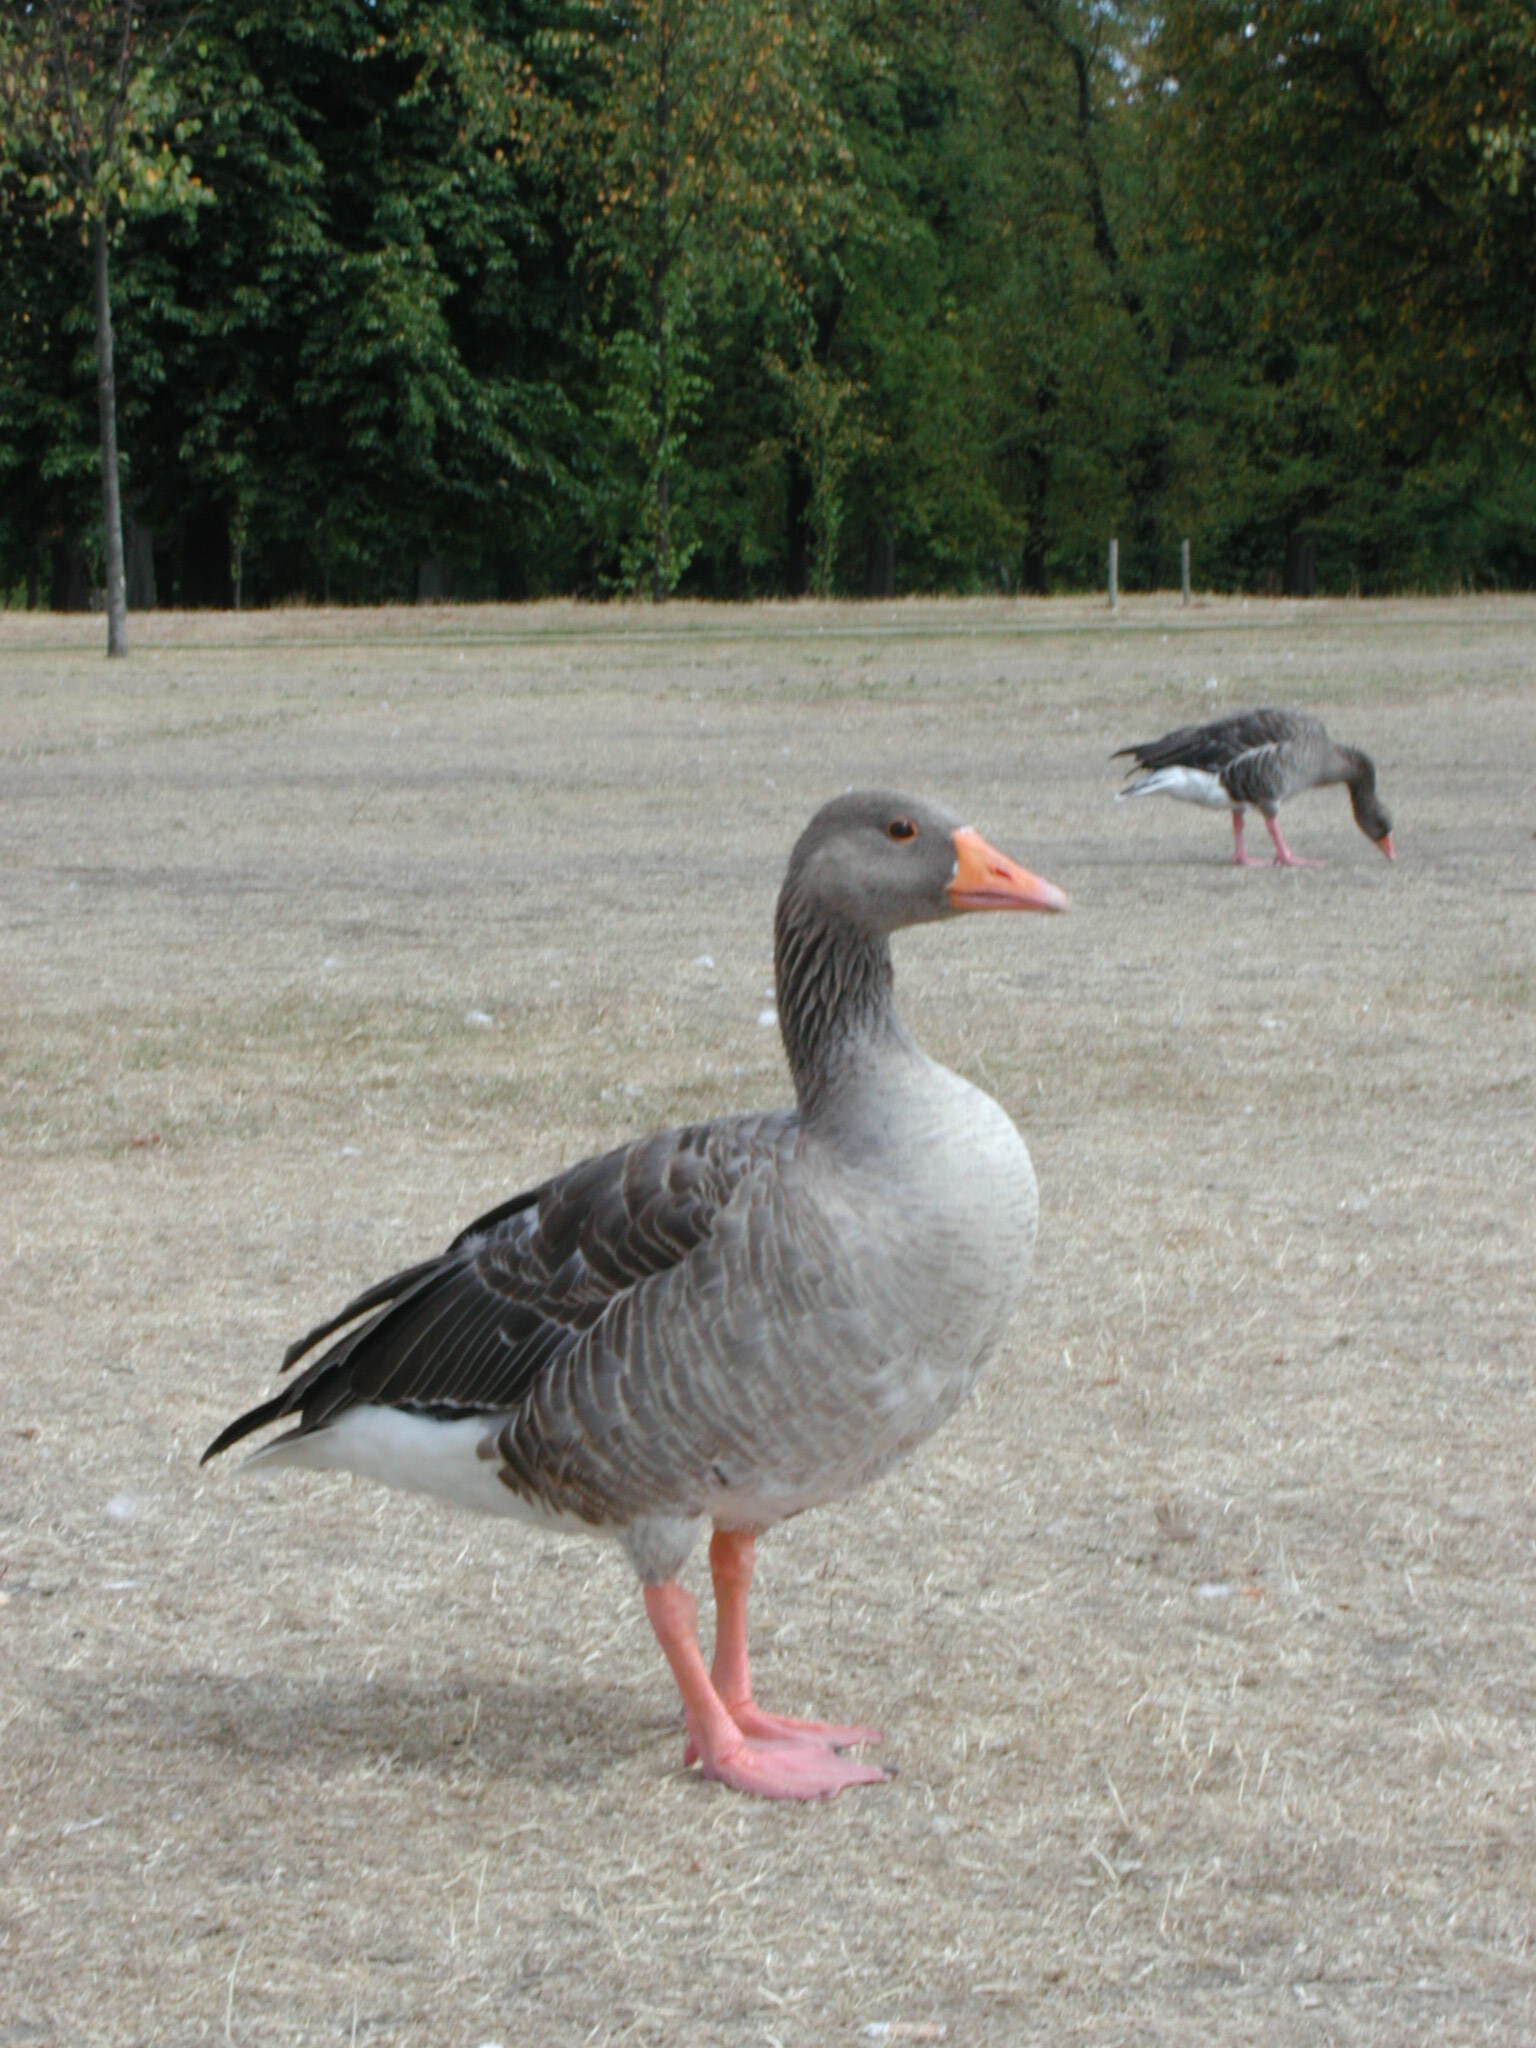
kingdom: Animalia
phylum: Chordata
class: Aves
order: Anseriformes
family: Anatidae
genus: Anser
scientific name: Anser anser
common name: Greylag goose
